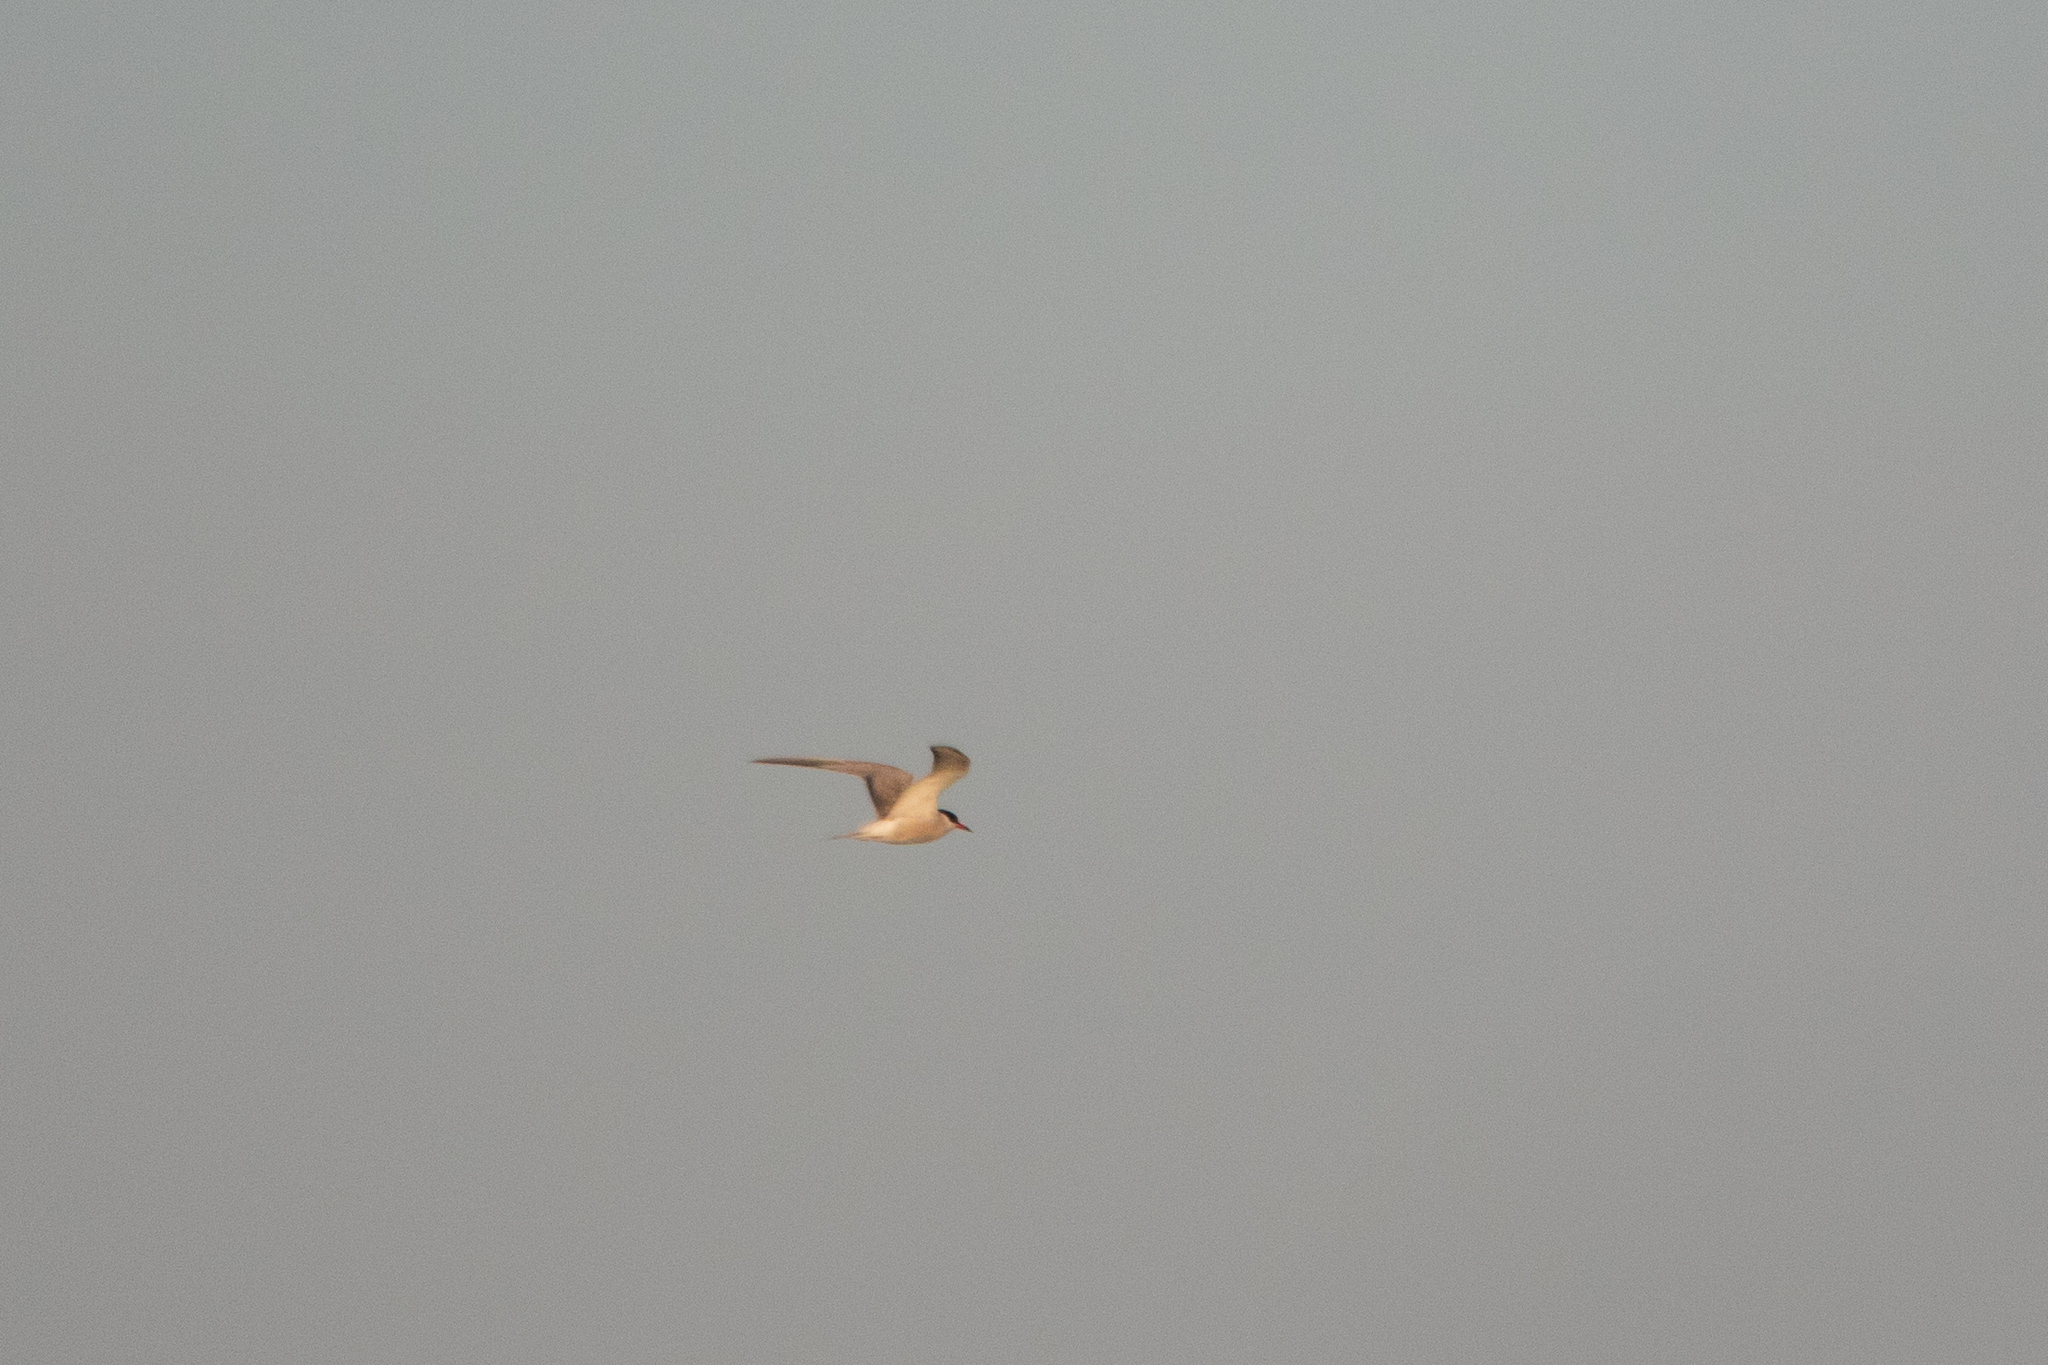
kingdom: Animalia
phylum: Chordata
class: Aves
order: Charadriiformes
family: Laridae
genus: Sterna
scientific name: Sterna hirundo
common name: Common tern
